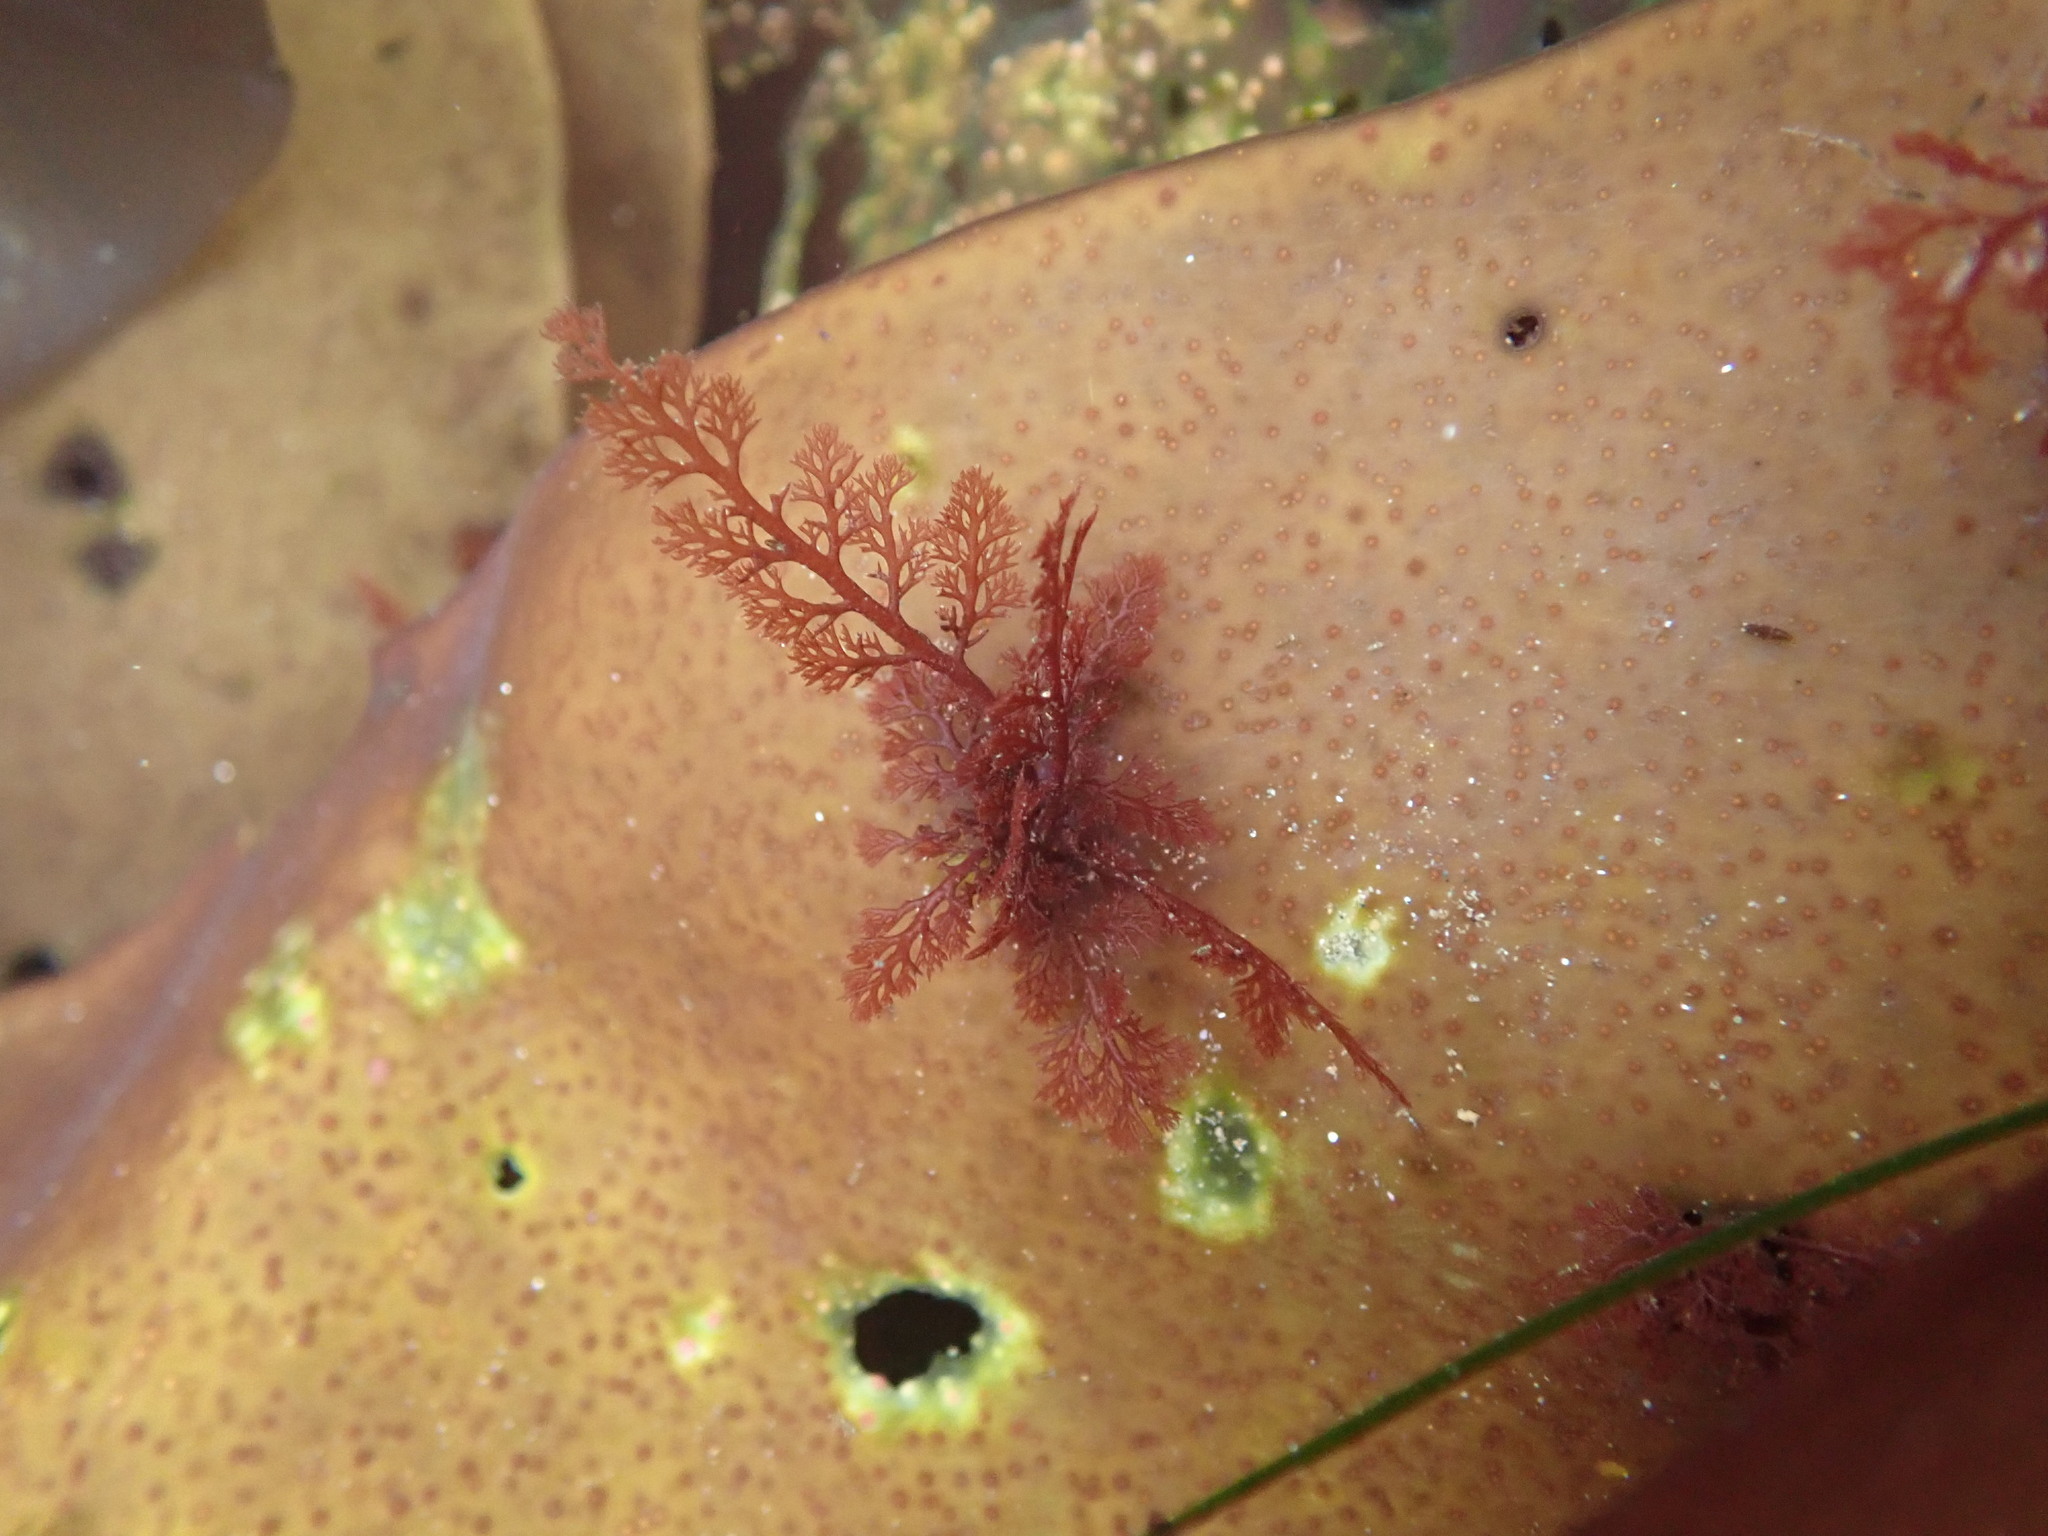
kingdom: Plantae
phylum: Rhodophyta
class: Florideophyceae
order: Ceramiales
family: Ceramiaceae
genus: Microcladia
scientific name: Microcladia coulteri
